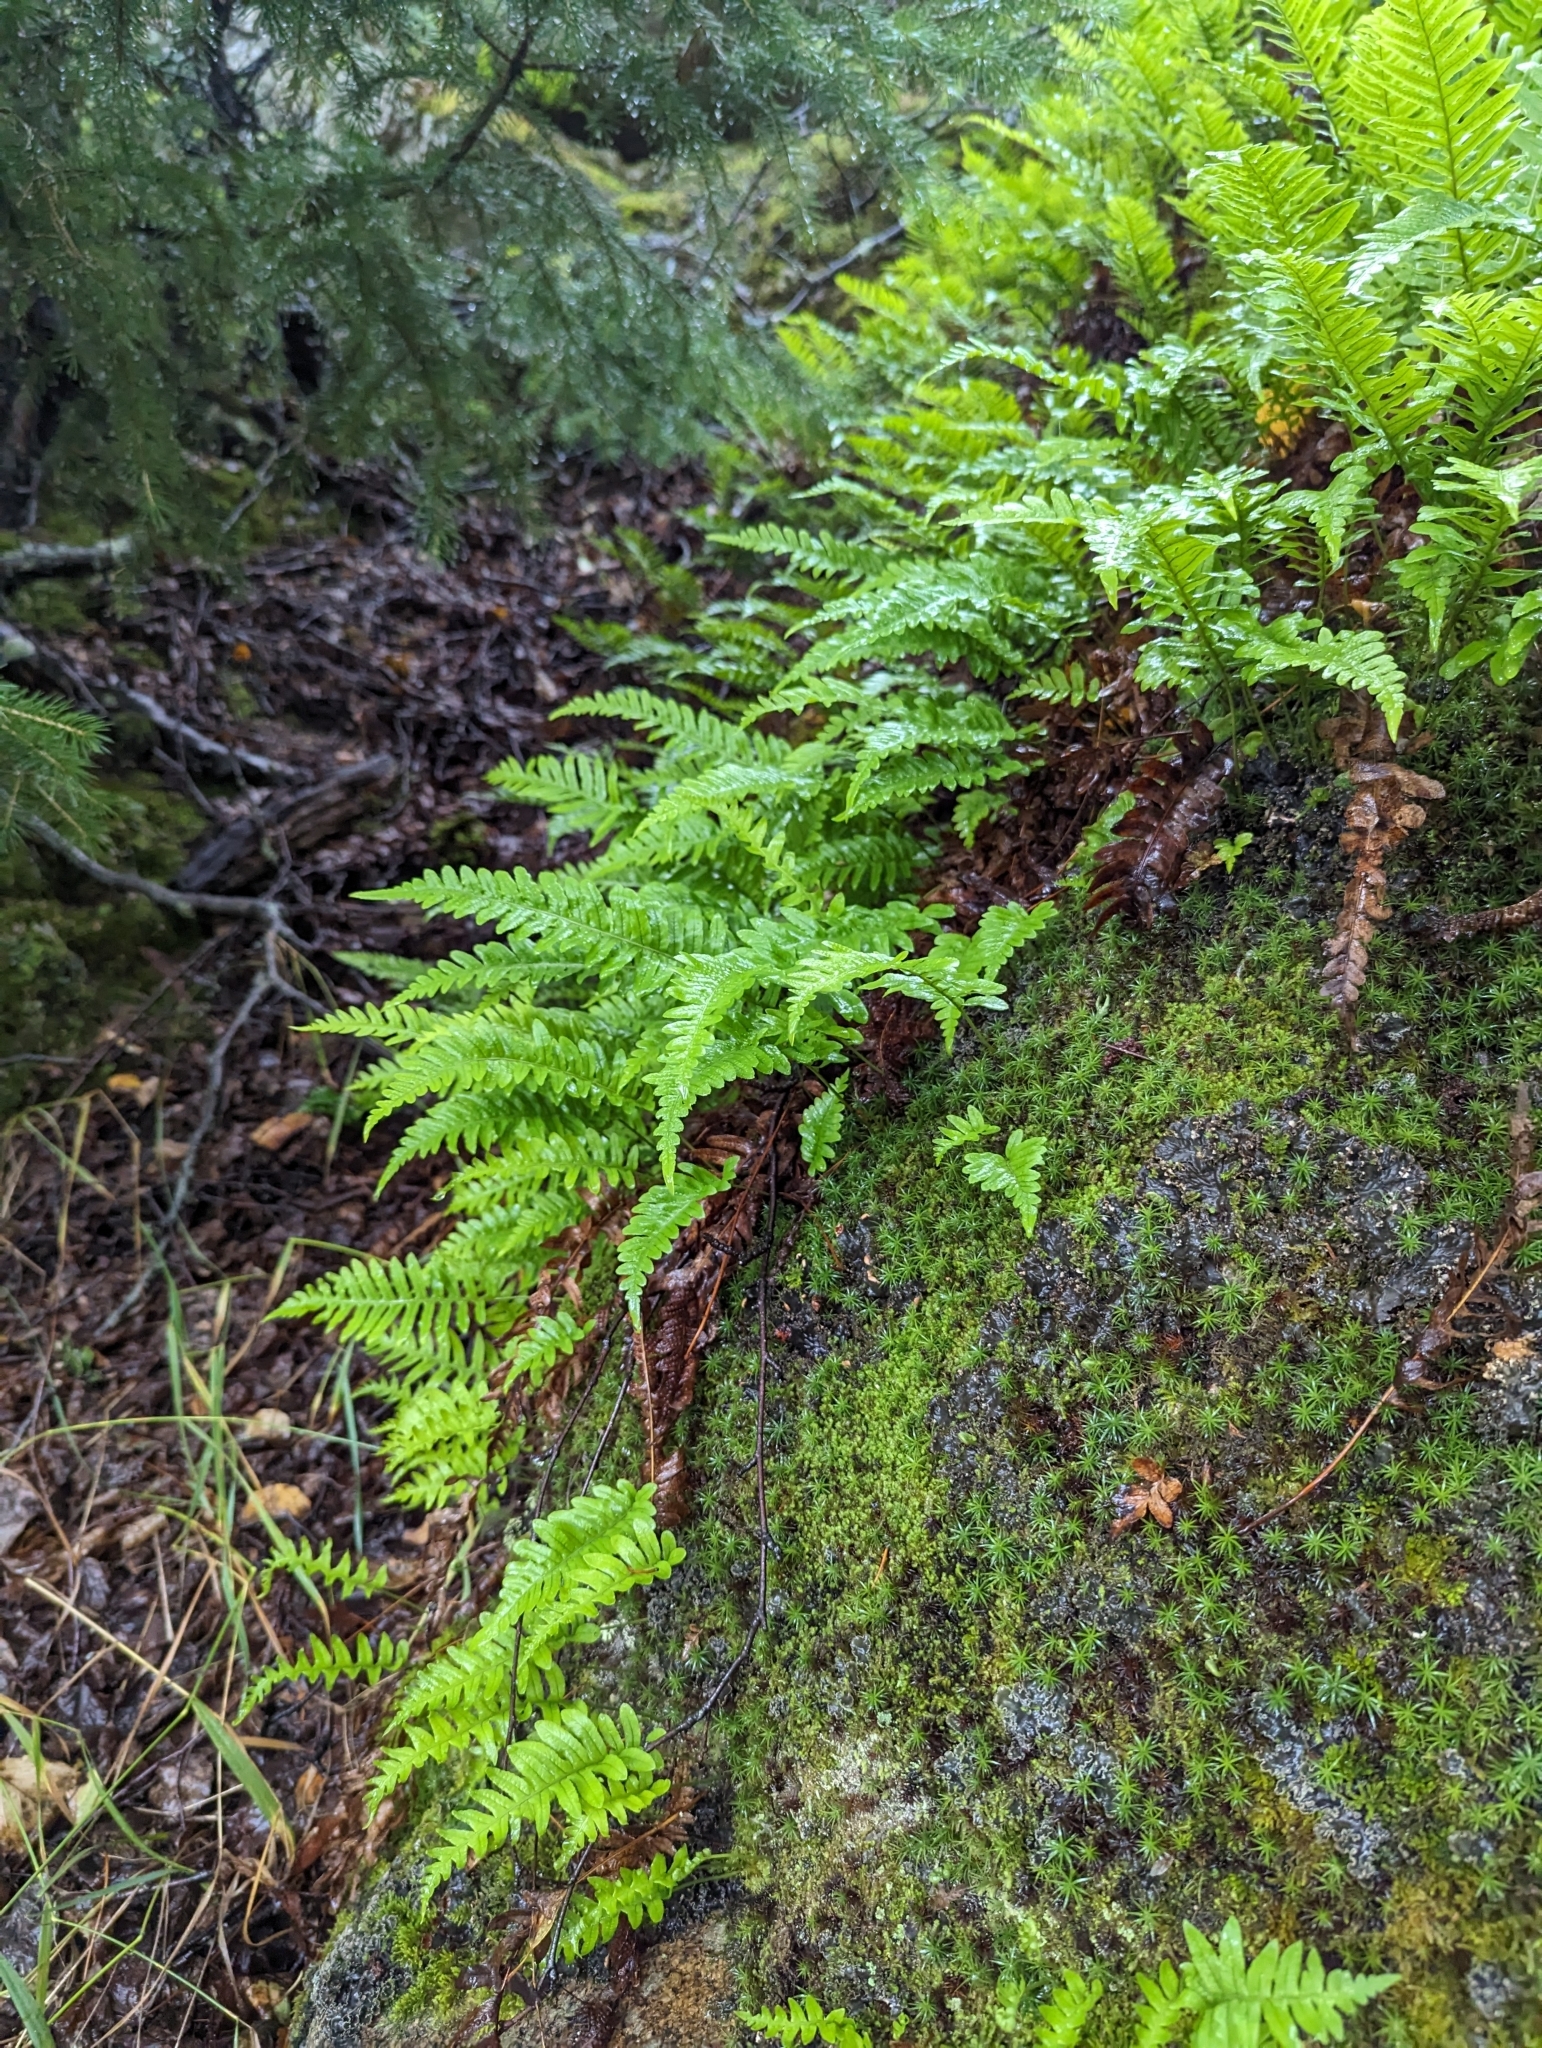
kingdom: Plantae
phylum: Tracheophyta
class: Polypodiopsida
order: Polypodiales
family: Polypodiaceae
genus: Polypodium
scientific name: Polypodium glycyrrhiza
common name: Licorice fern
